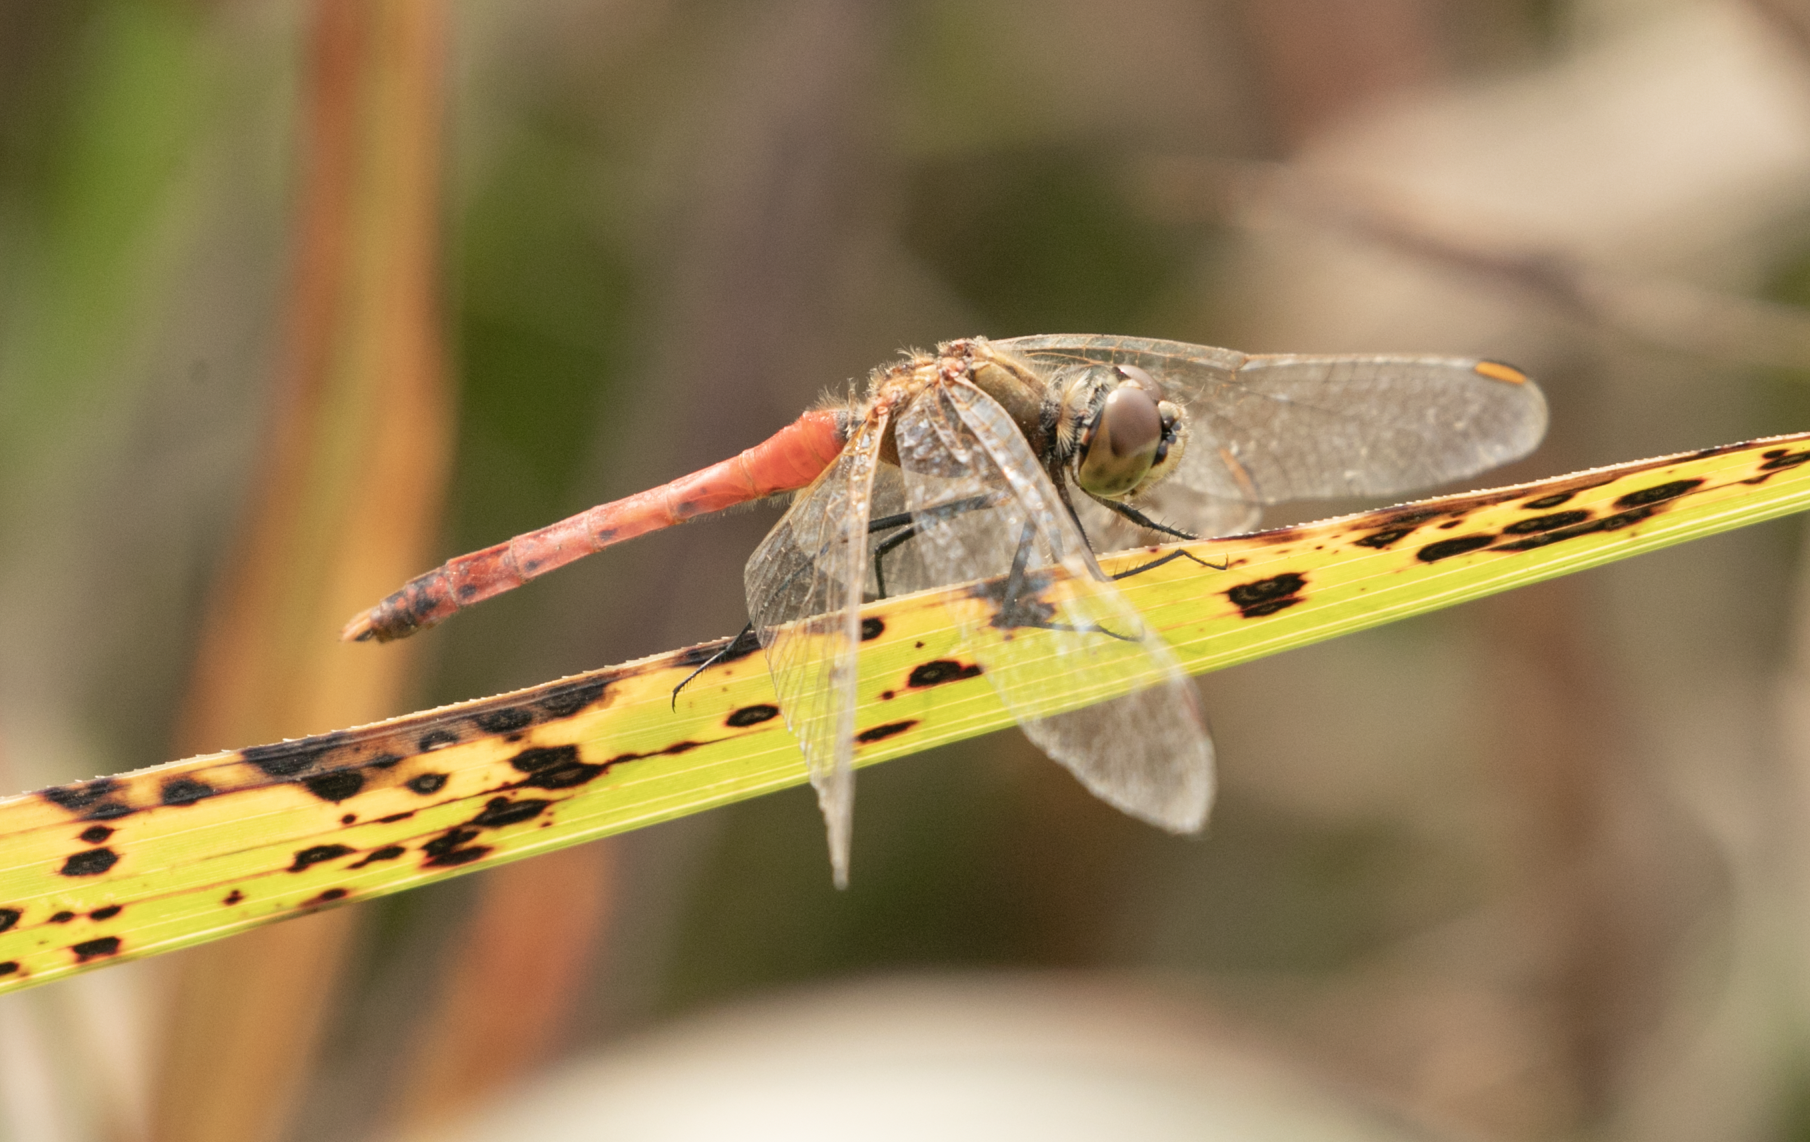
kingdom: Animalia
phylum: Arthropoda
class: Insecta
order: Odonata
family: Libellulidae
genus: Sympetrum
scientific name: Sympetrum depressiusculum
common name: Spotted darter
